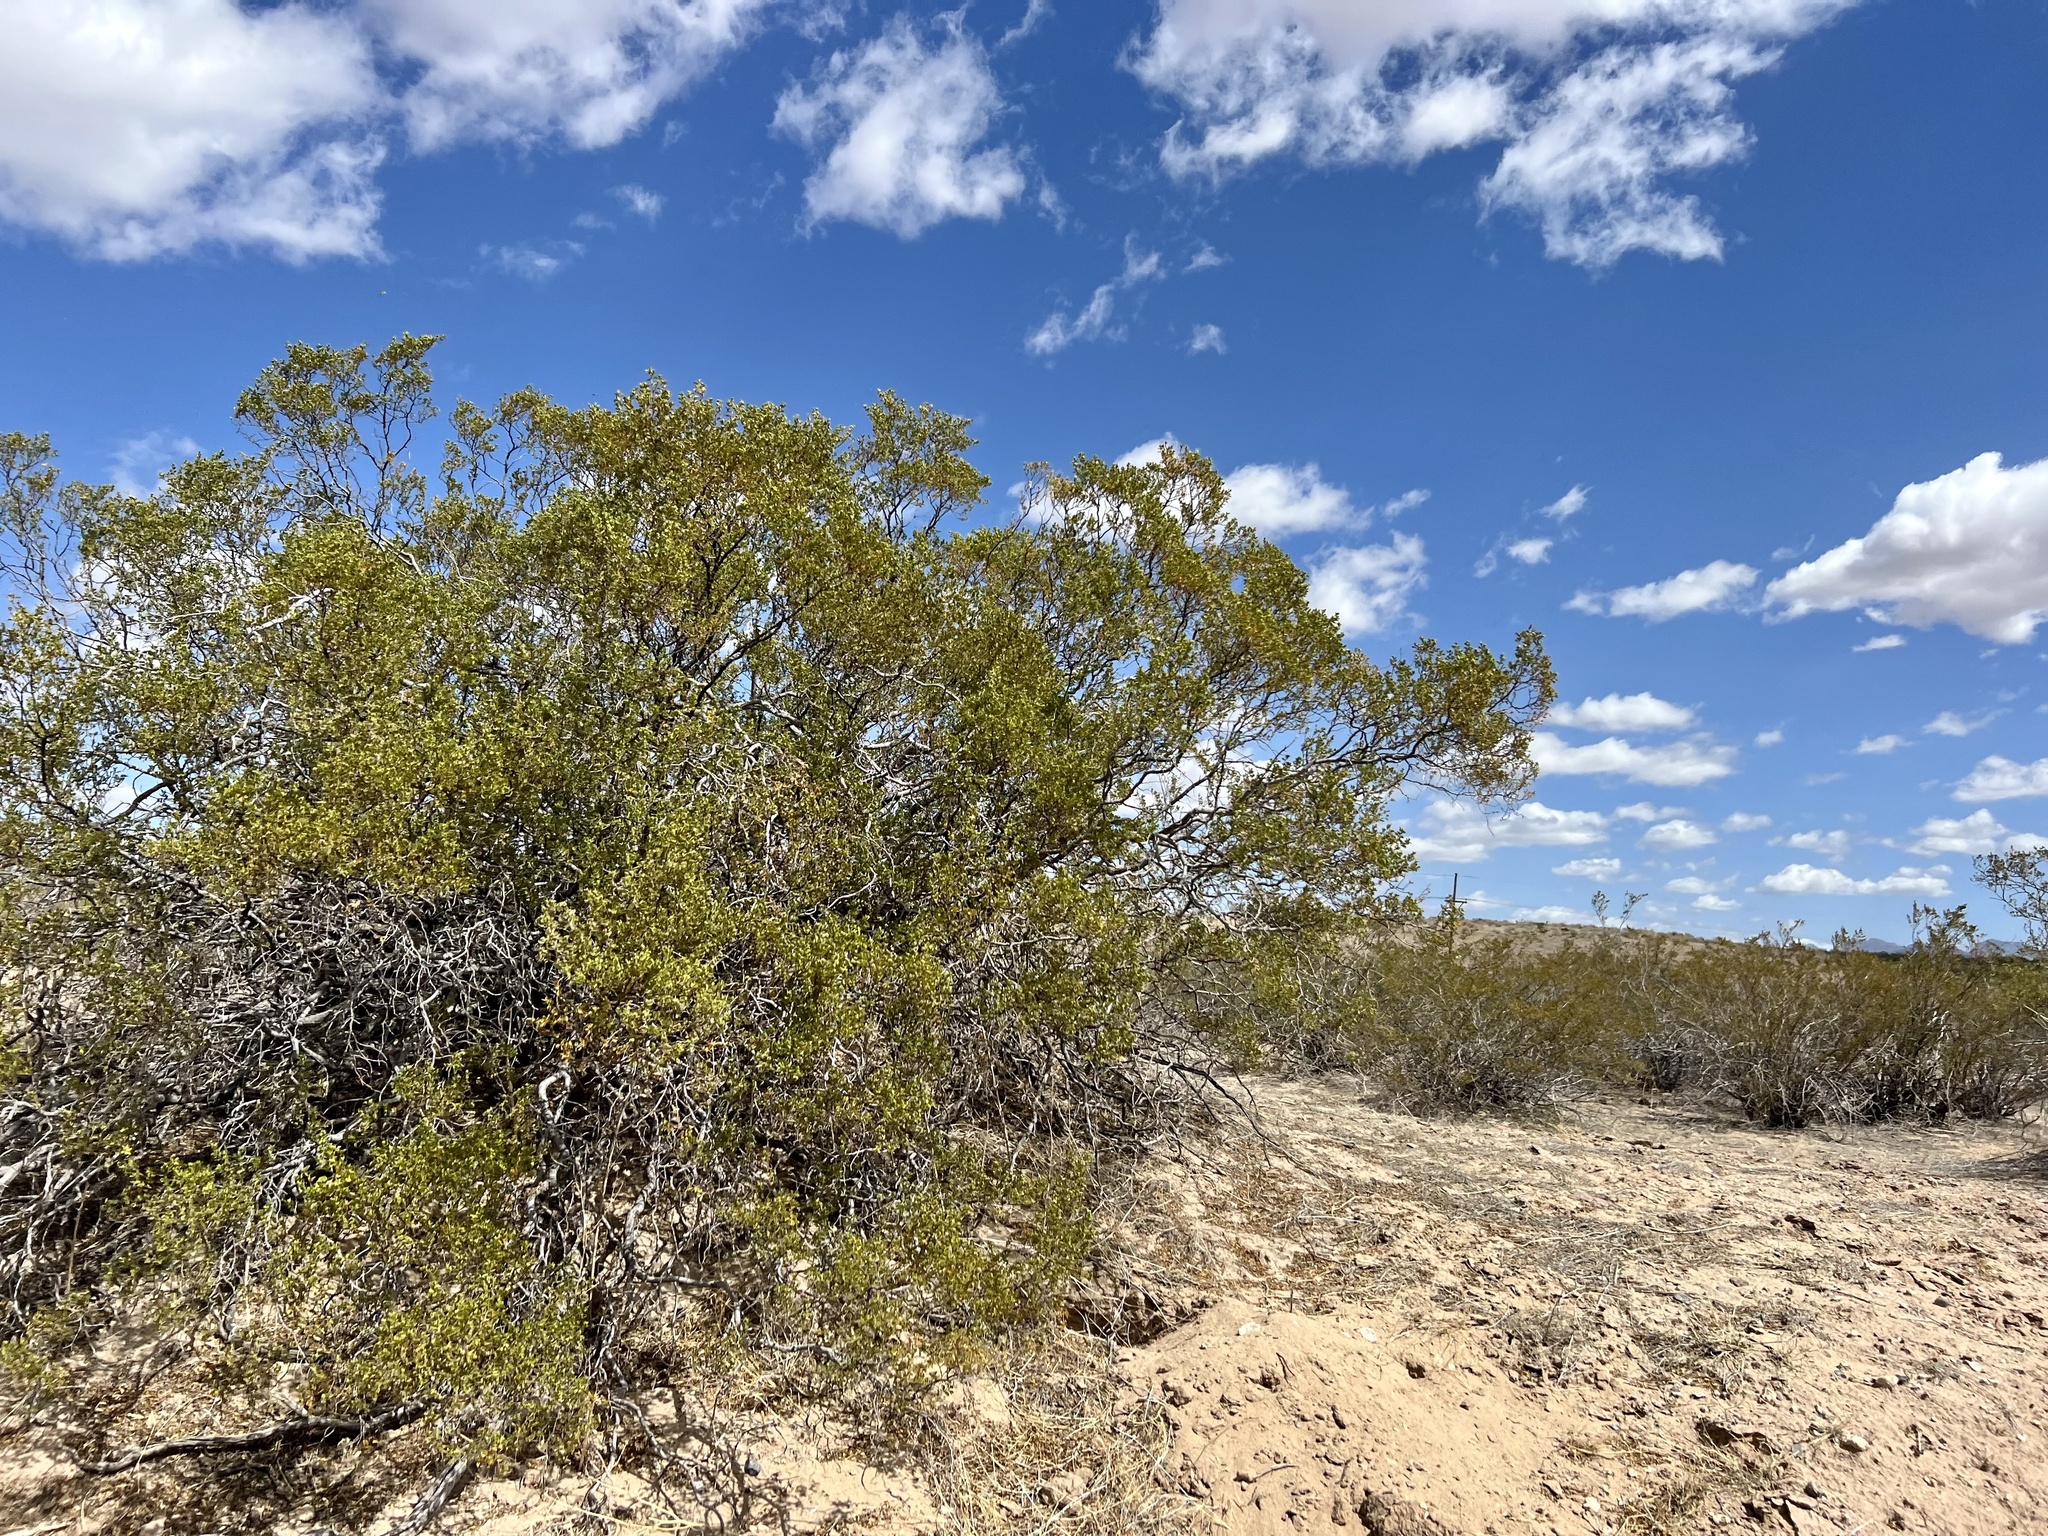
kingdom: Plantae
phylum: Tracheophyta
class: Magnoliopsida
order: Zygophyllales
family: Zygophyllaceae
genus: Larrea
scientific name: Larrea tridentata
